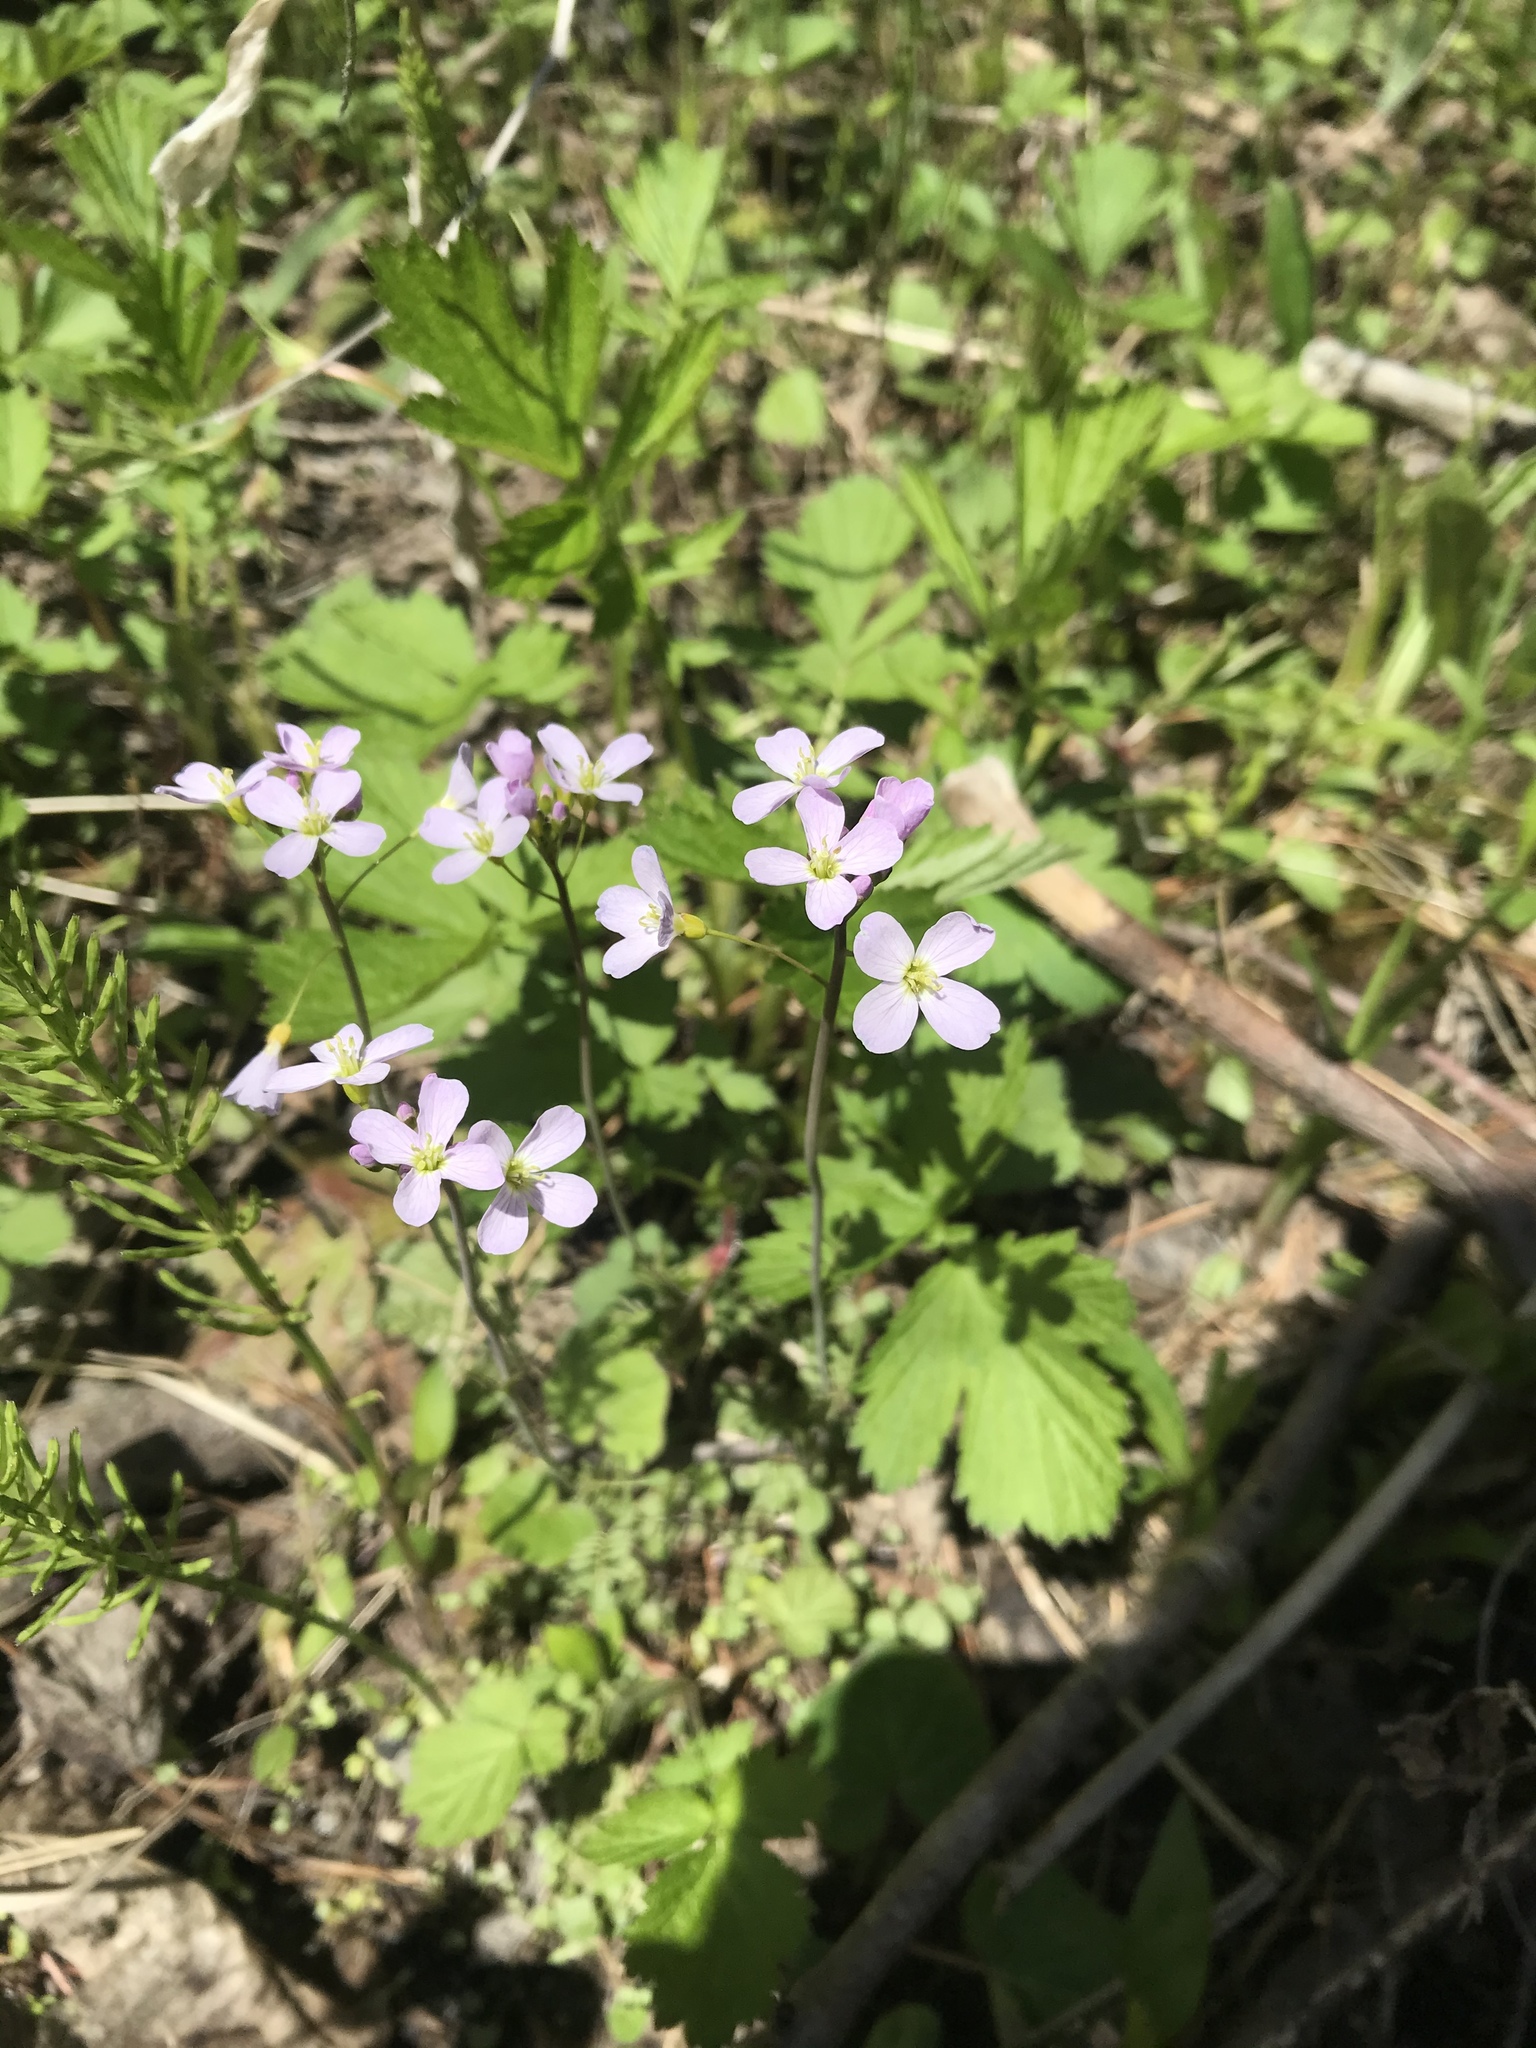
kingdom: Plantae
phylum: Tracheophyta
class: Magnoliopsida
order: Brassicales
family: Brassicaceae
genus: Cardamine
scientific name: Cardamine pratensis
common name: Cuckoo flower
